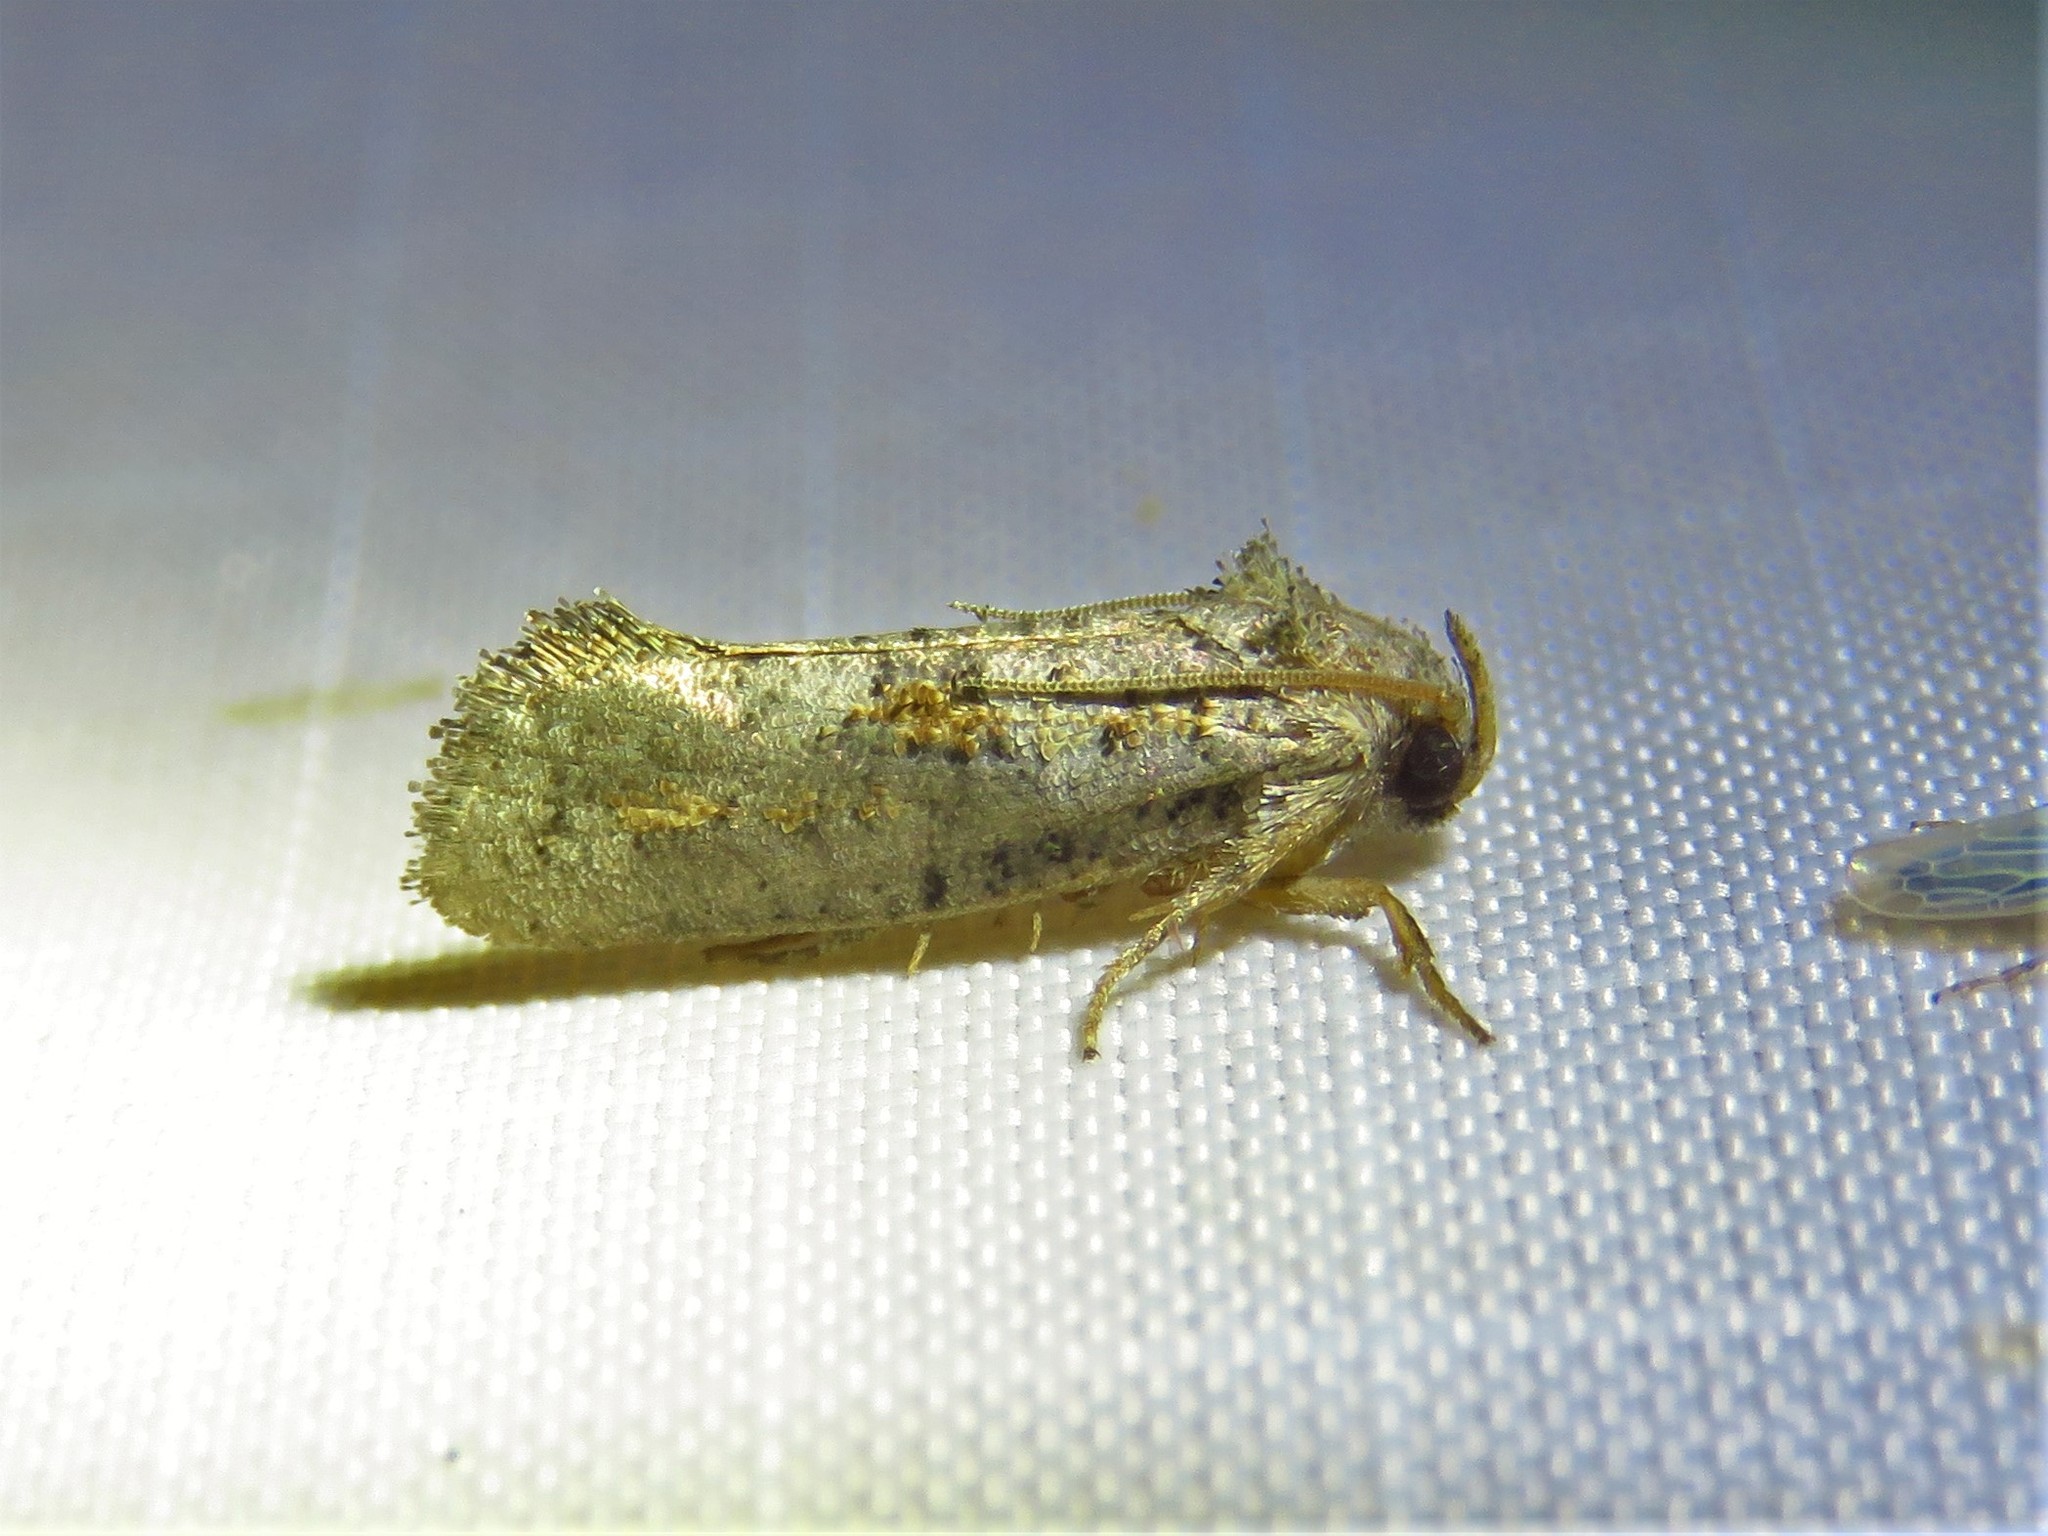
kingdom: Animalia
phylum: Arthropoda
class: Insecta
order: Lepidoptera
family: Tineidae
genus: Acrolophus
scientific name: Acrolophus piger
